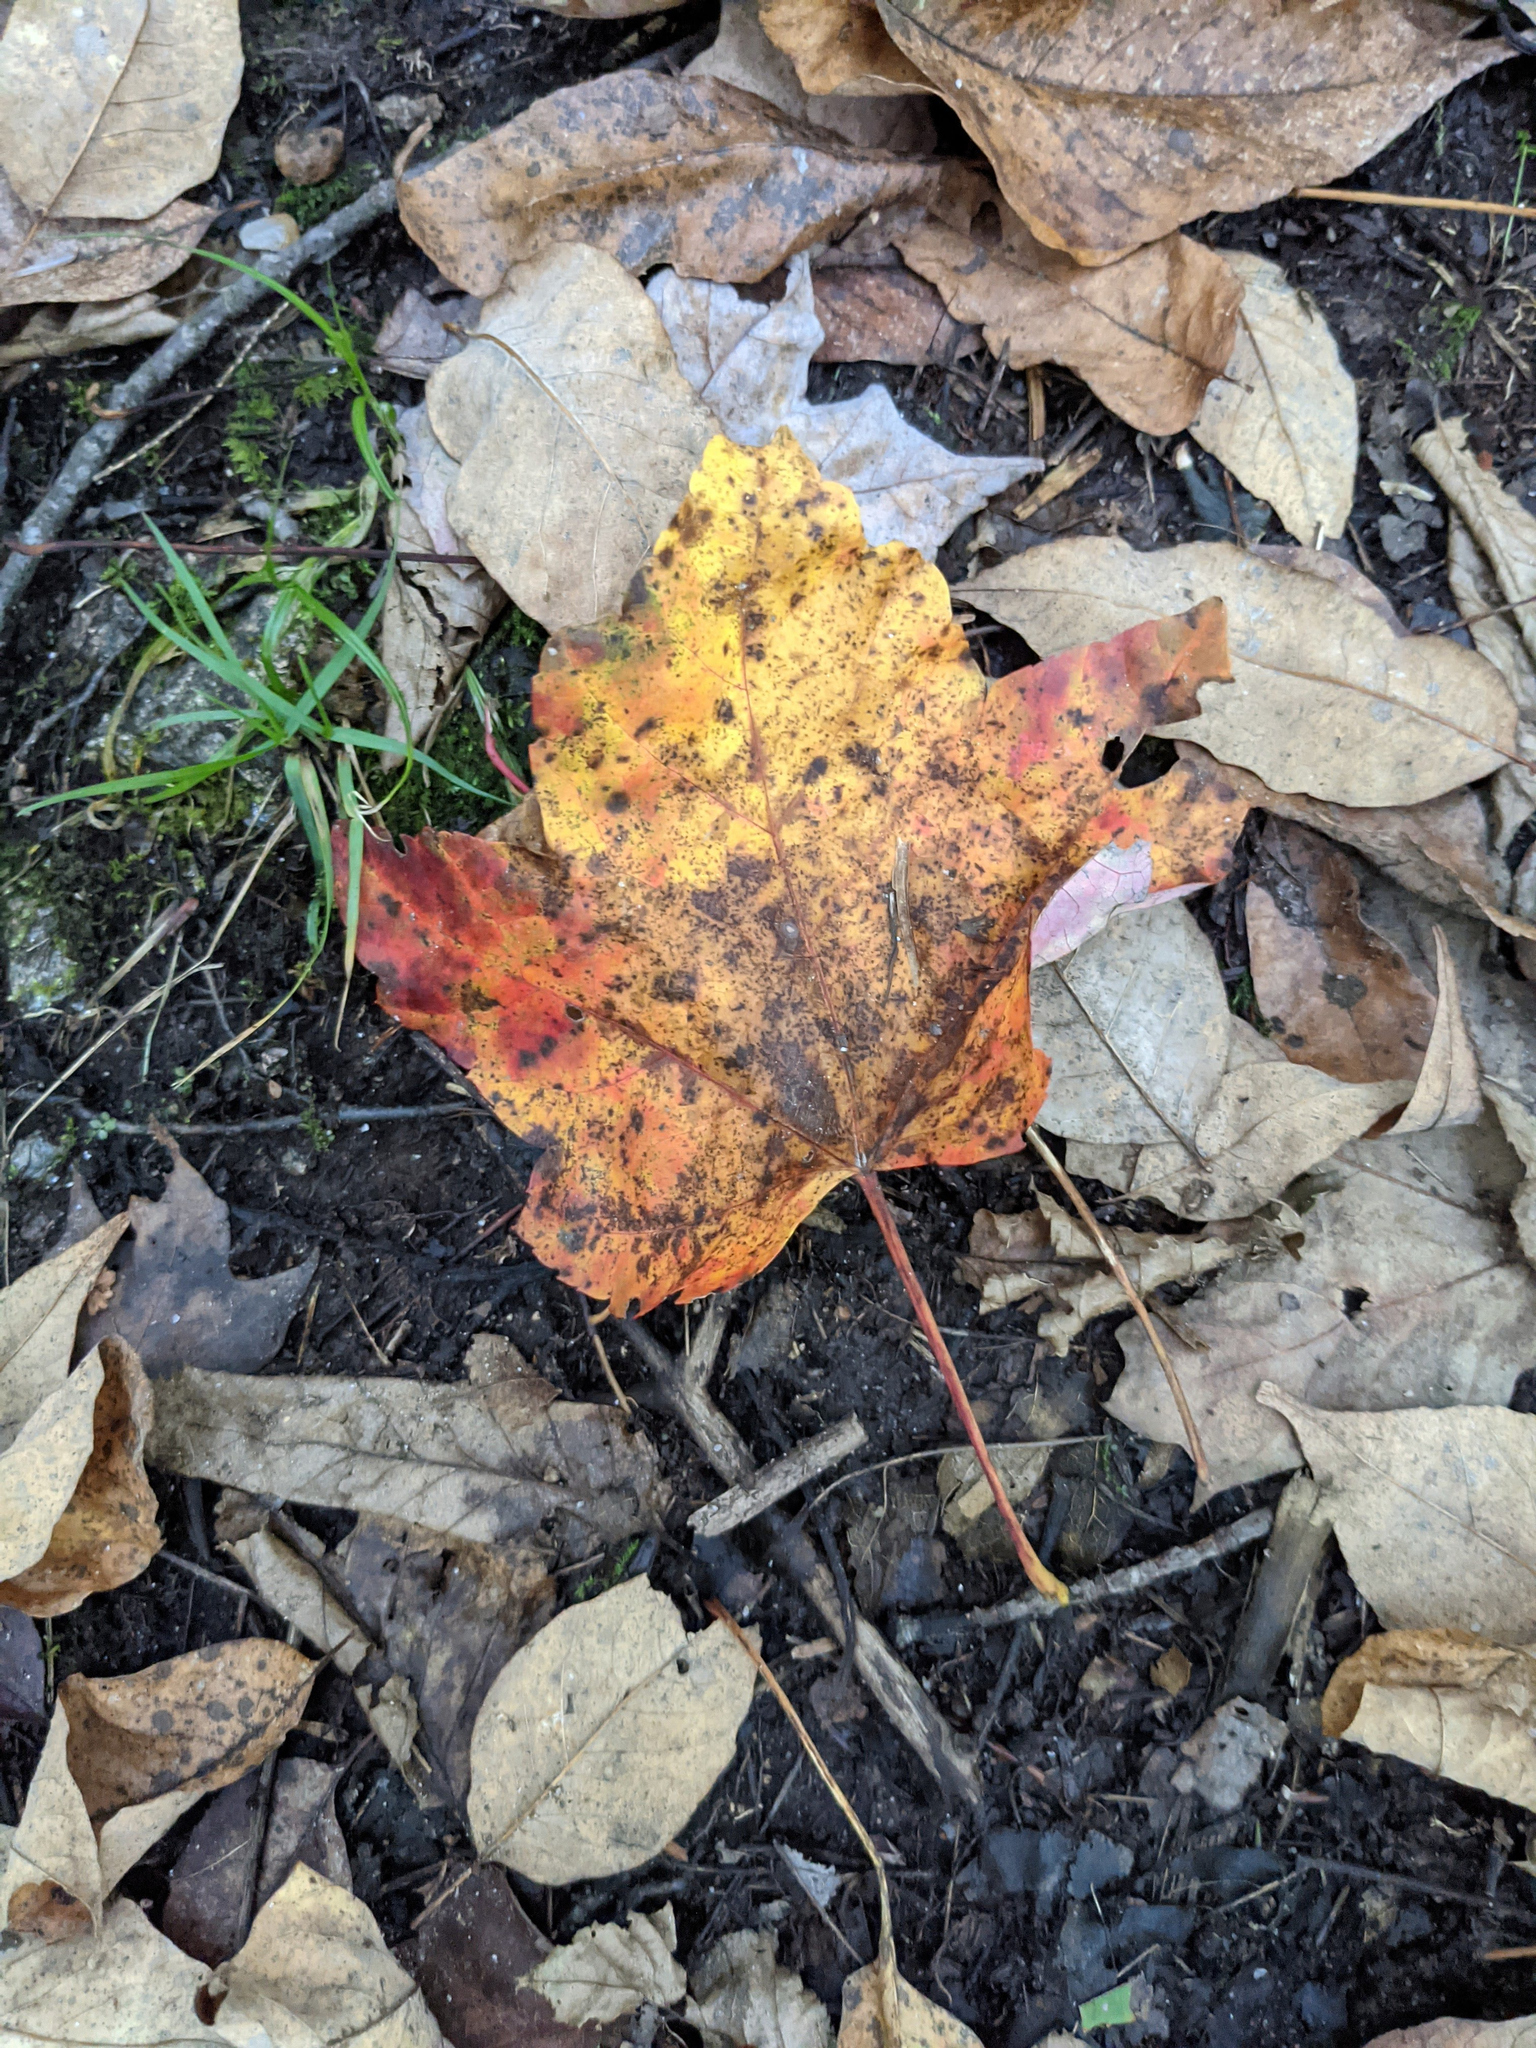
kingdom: Plantae
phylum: Tracheophyta
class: Magnoliopsida
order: Sapindales
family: Sapindaceae
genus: Acer
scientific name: Acer rubrum
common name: Red maple
